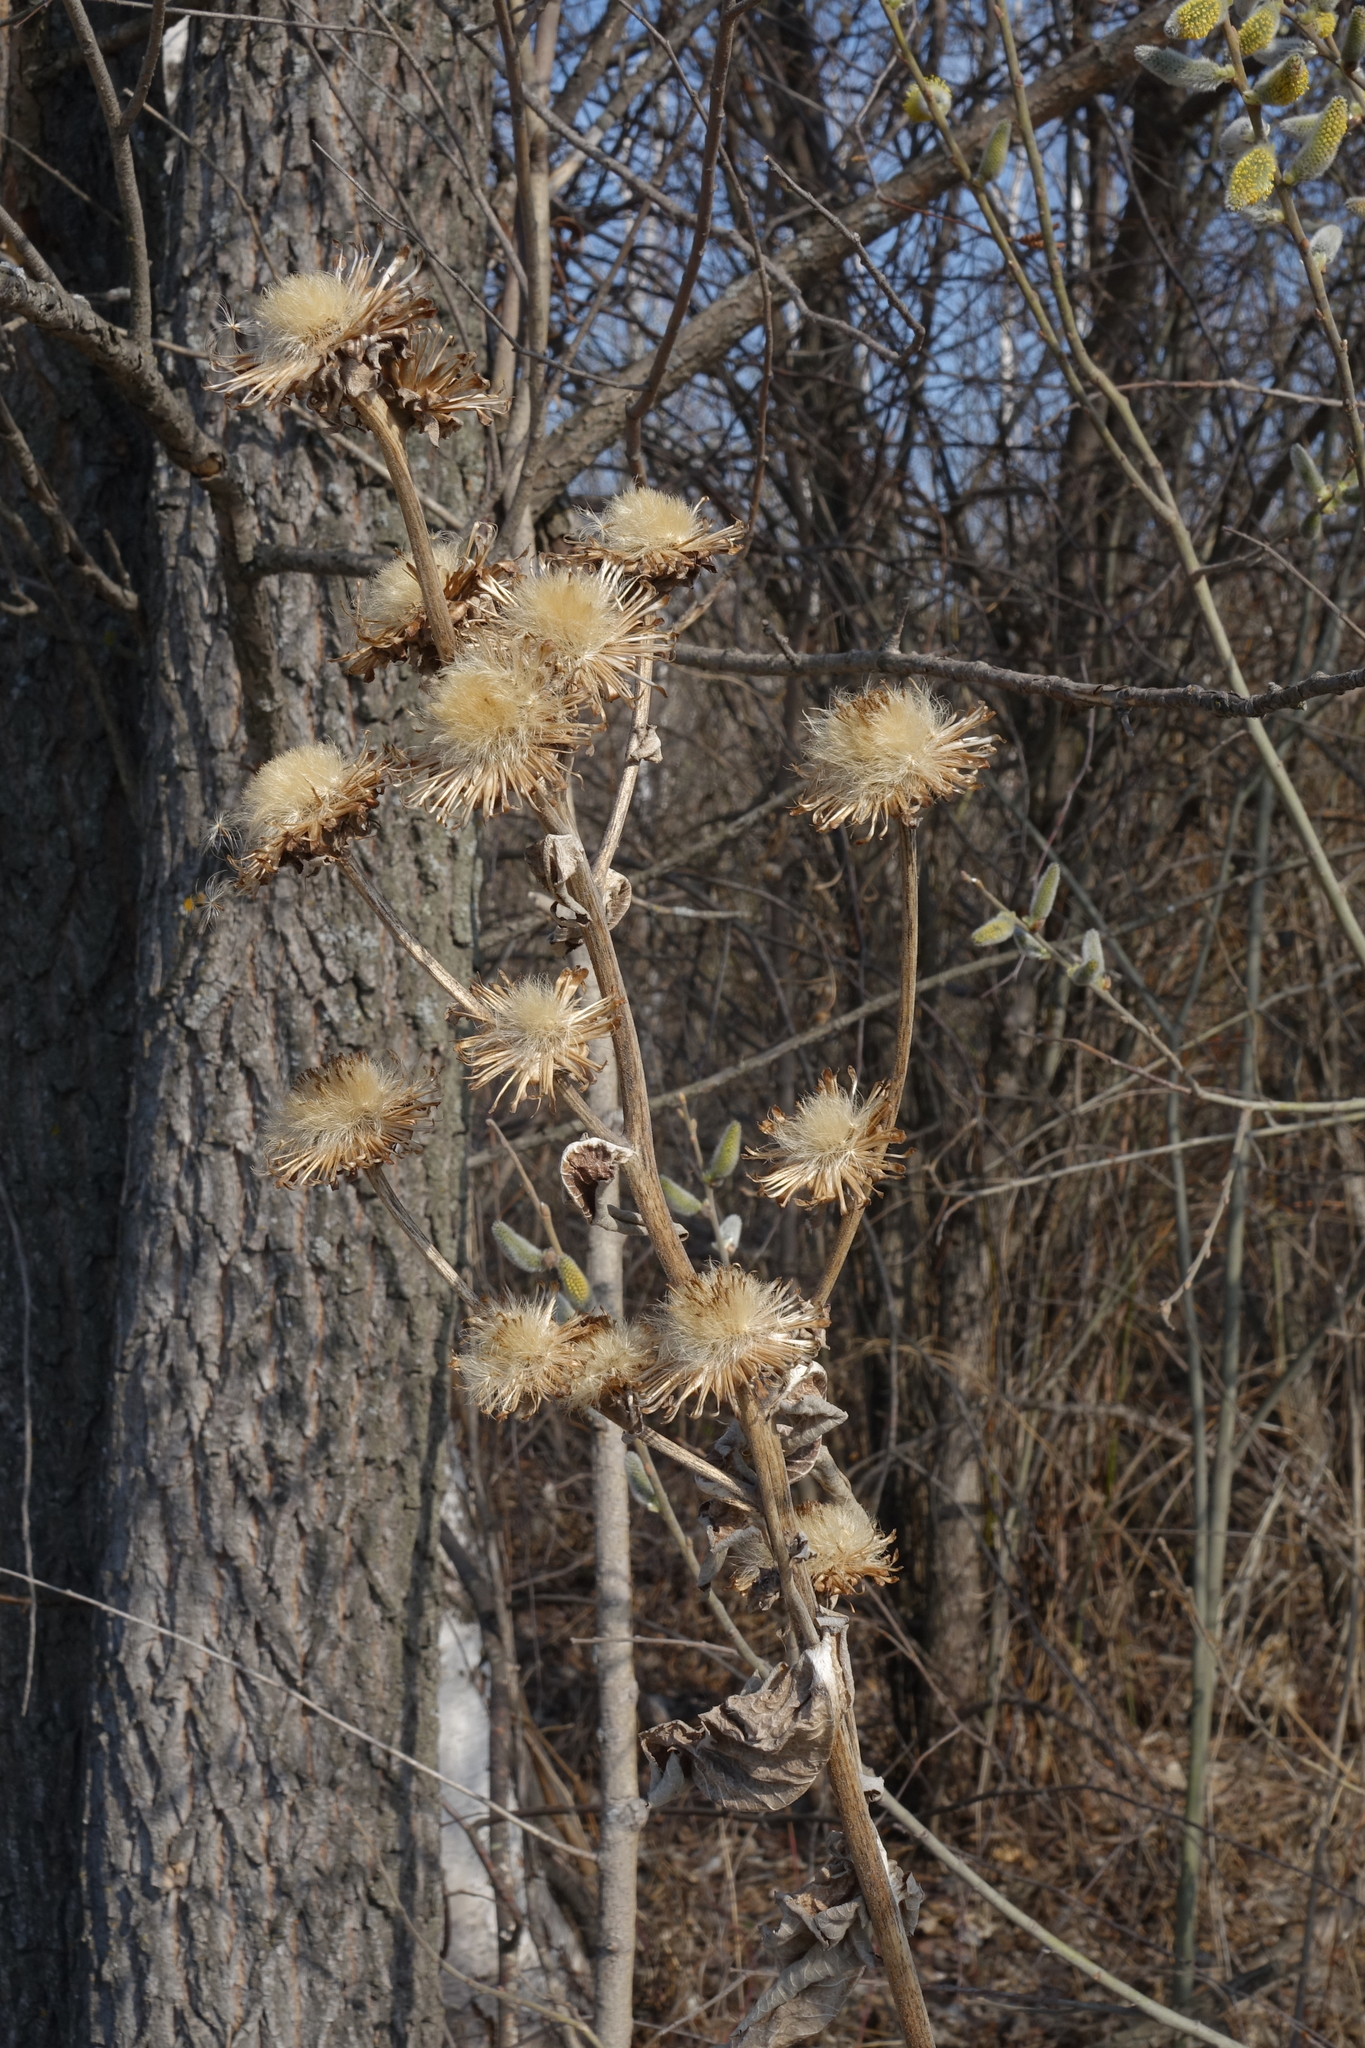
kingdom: Plantae
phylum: Tracheophyta
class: Magnoliopsida
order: Asterales
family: Asteraceae
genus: Inula
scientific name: Inula helenium
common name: Elecampane
